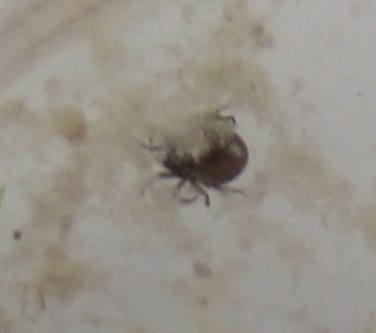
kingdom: Animalia
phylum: Arthropoda
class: Arachnida
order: Sarcoptiformes
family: Hydrozetidae
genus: Hydrozetes
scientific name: Hydrozetes
